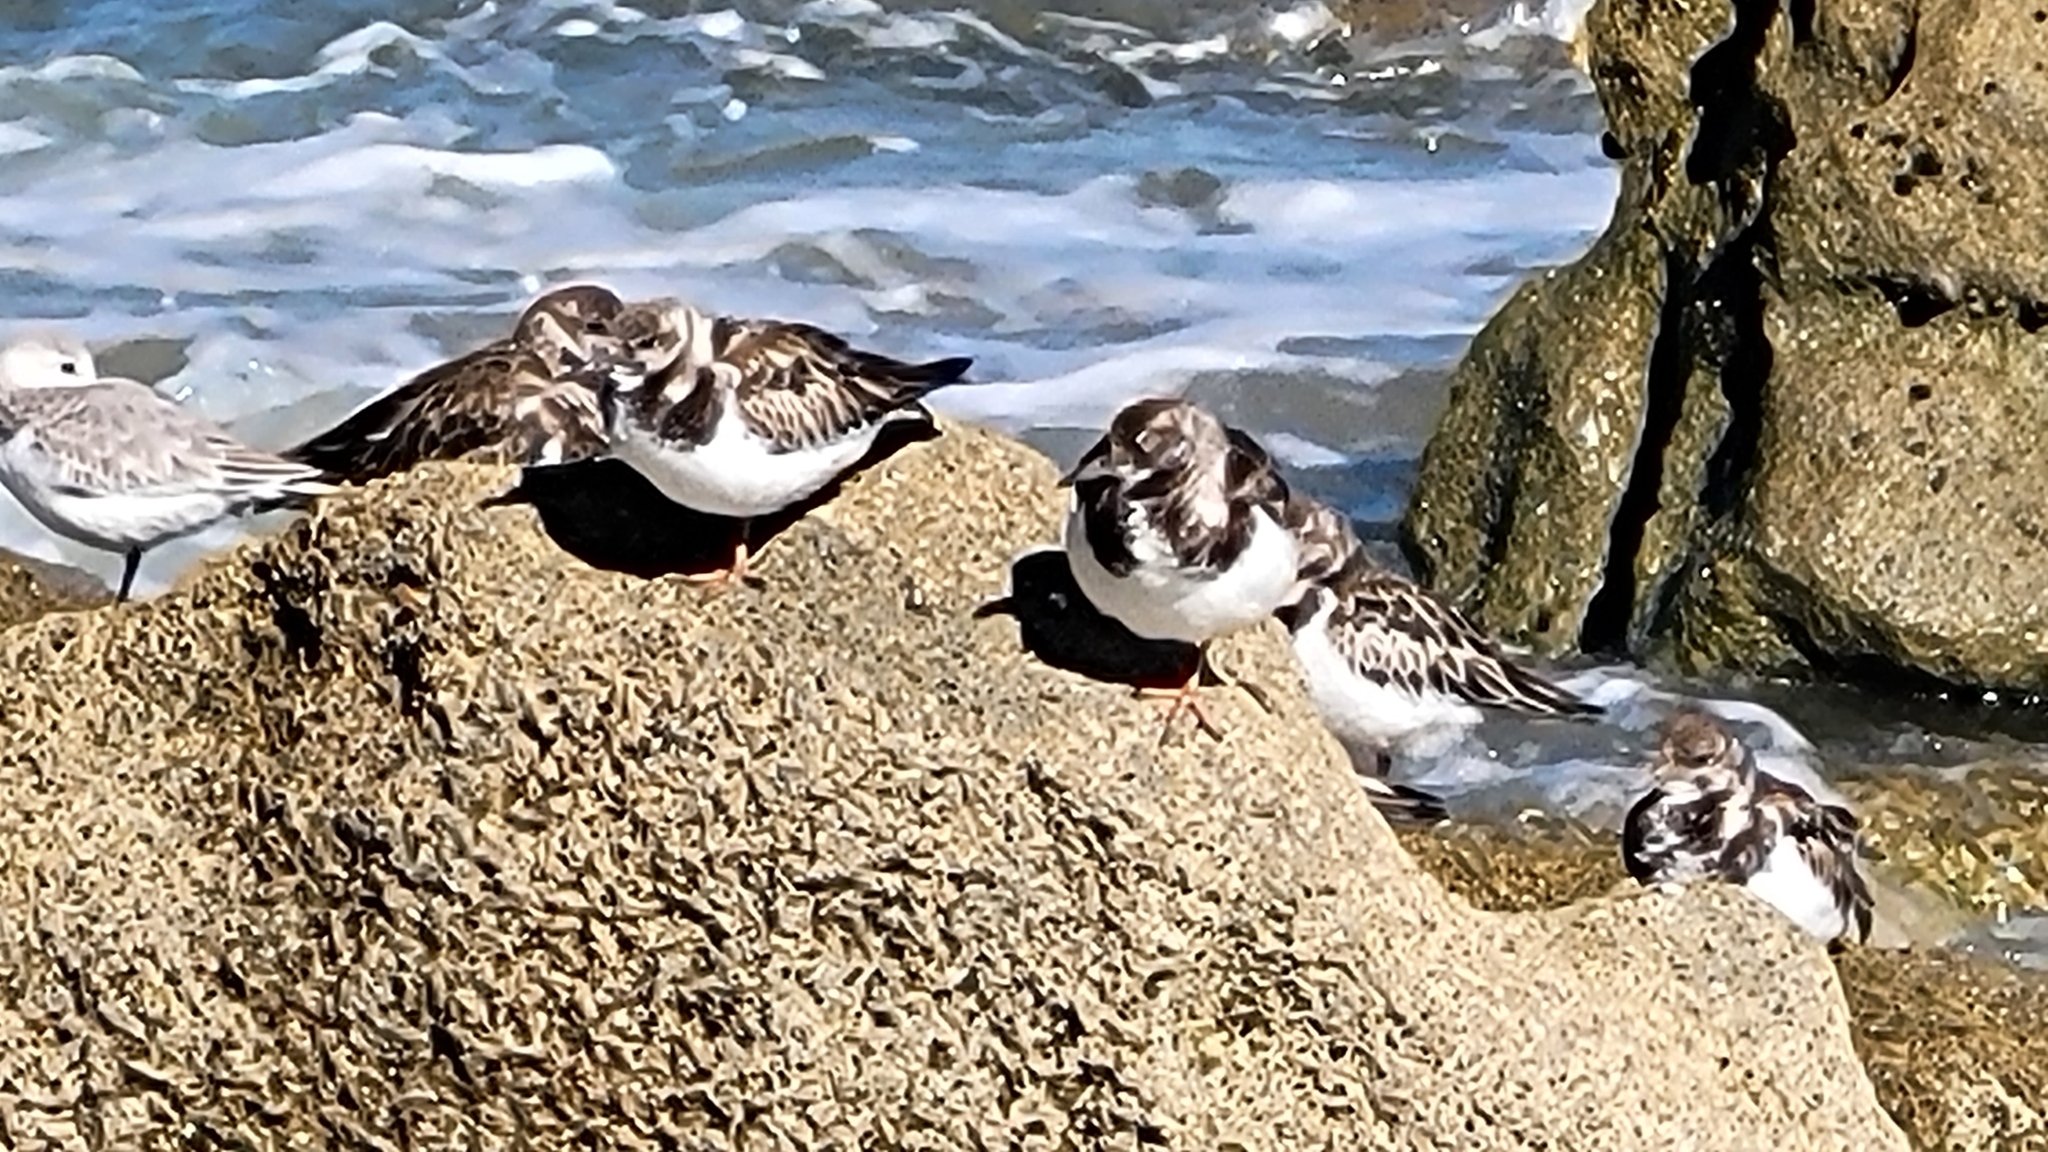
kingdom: Animalia
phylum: Chordata
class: Aves
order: Charadriiformes
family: Scolopacidae
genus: Arenaria
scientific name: Arenaria interpres
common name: Ruddy turnstone
